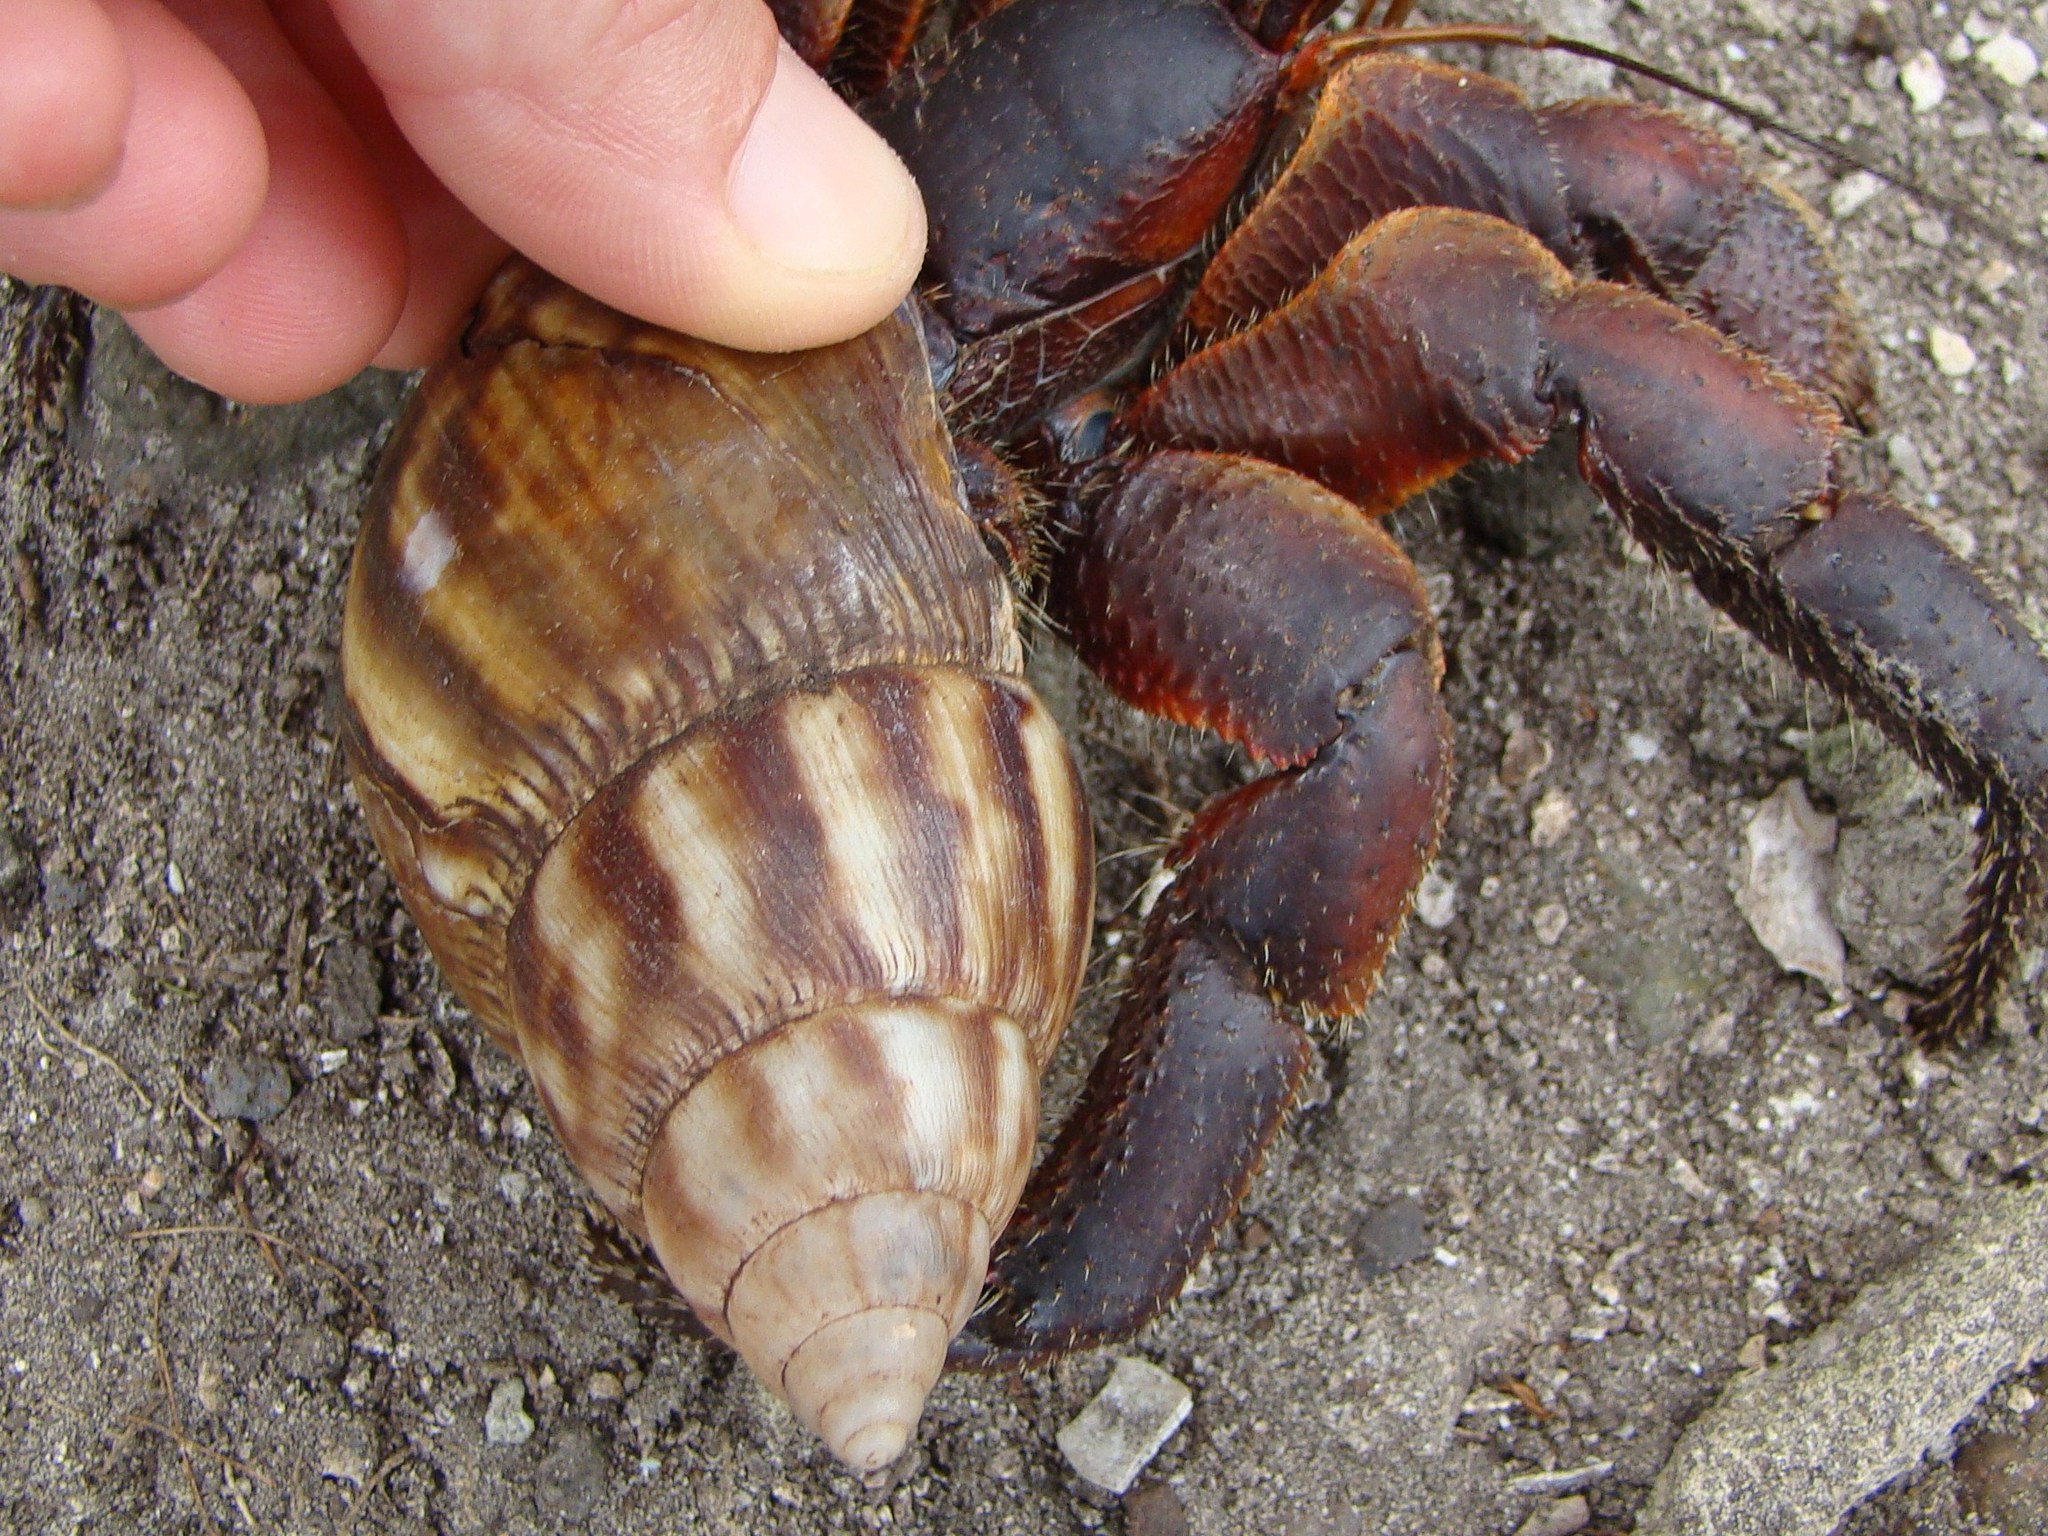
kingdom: Animalia
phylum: Mollusca
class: Gastropoda
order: Stylommatophora
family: Achatinidae
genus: Lissachatina
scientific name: Lissachatina fulica
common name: Giant african snail
